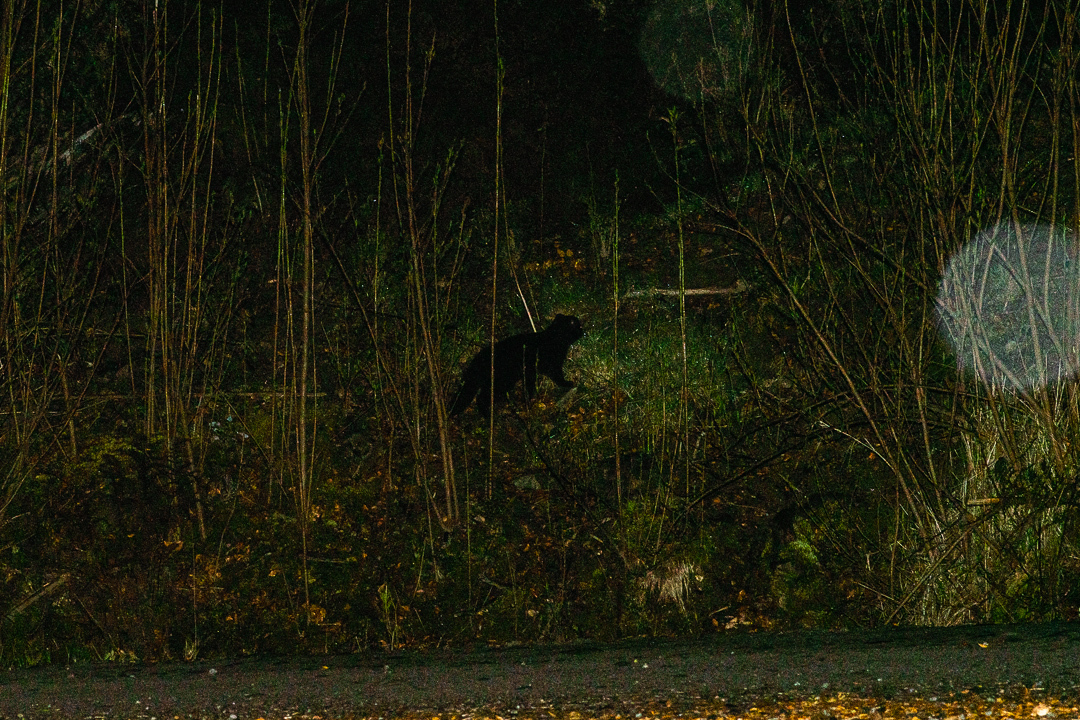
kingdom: Animalia
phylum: Chordata
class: Mammalia
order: Carnivora
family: Felidae
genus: Leopardus
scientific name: Leopardus guigna
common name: Kodkod
